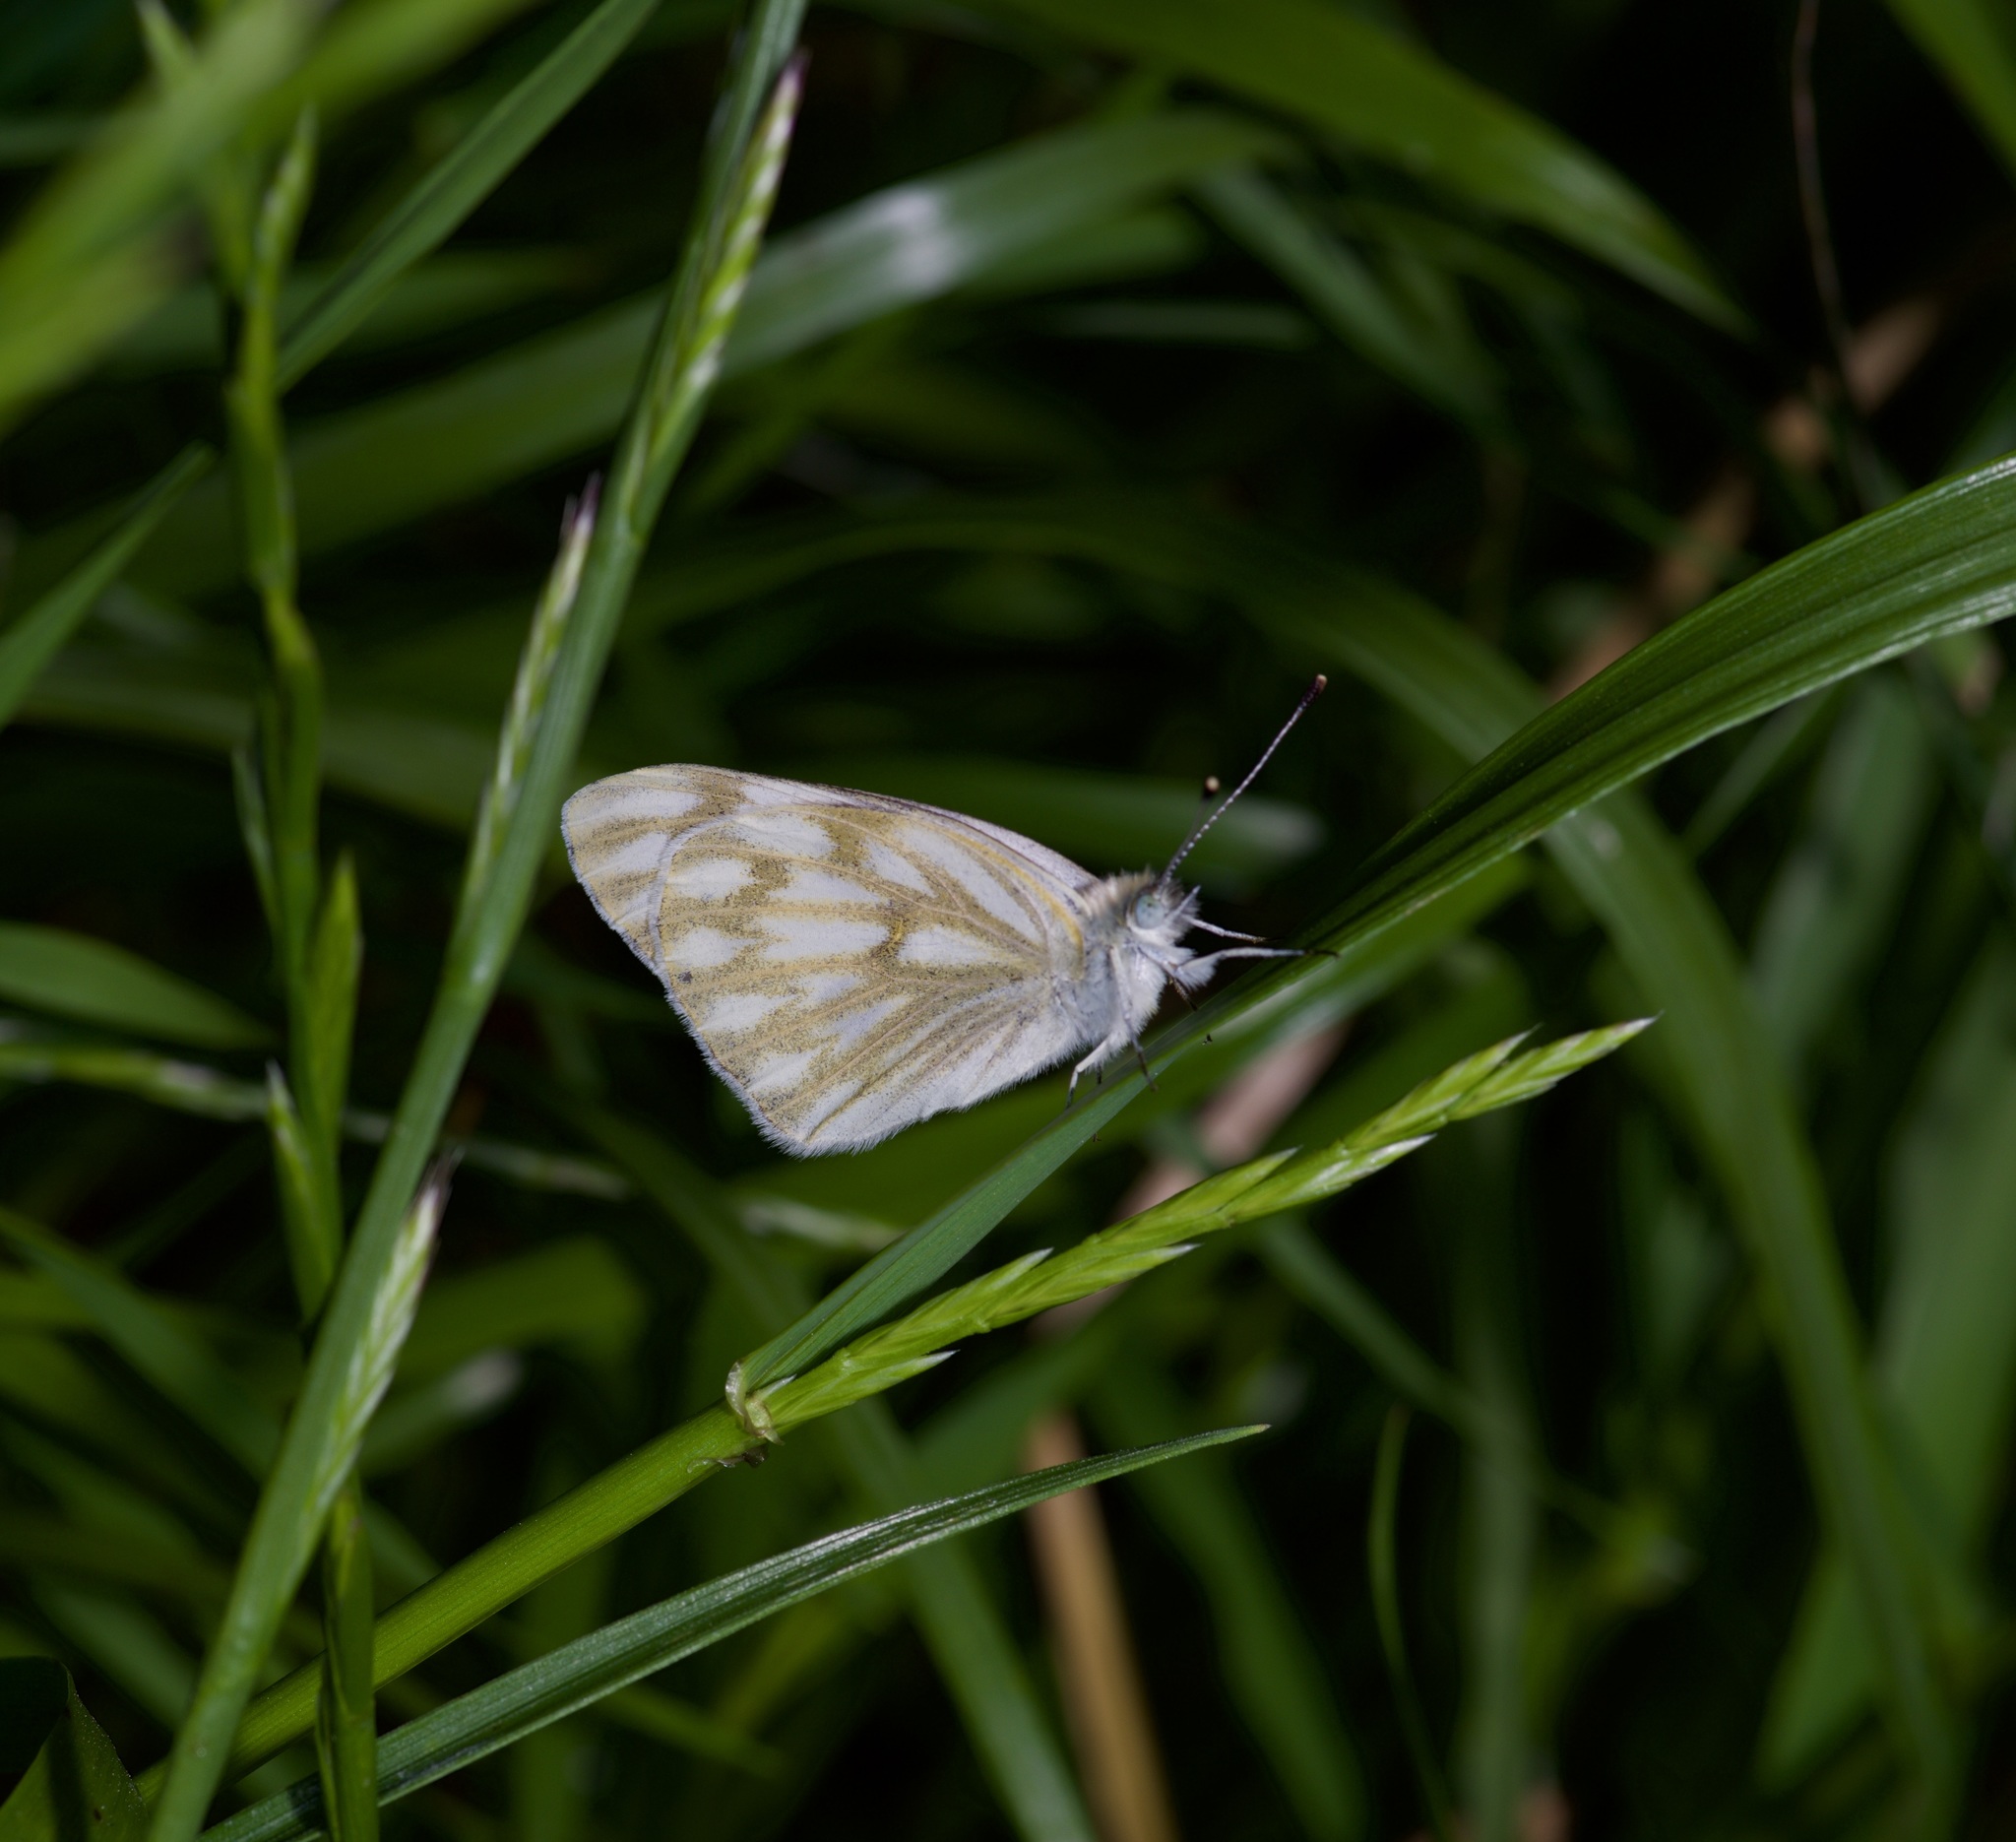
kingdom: Animalia
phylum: Arthropoda
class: Insecta
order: Lepidoptera
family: Pieridae
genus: Pontia
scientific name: Pontia protodice
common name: Checkered white
